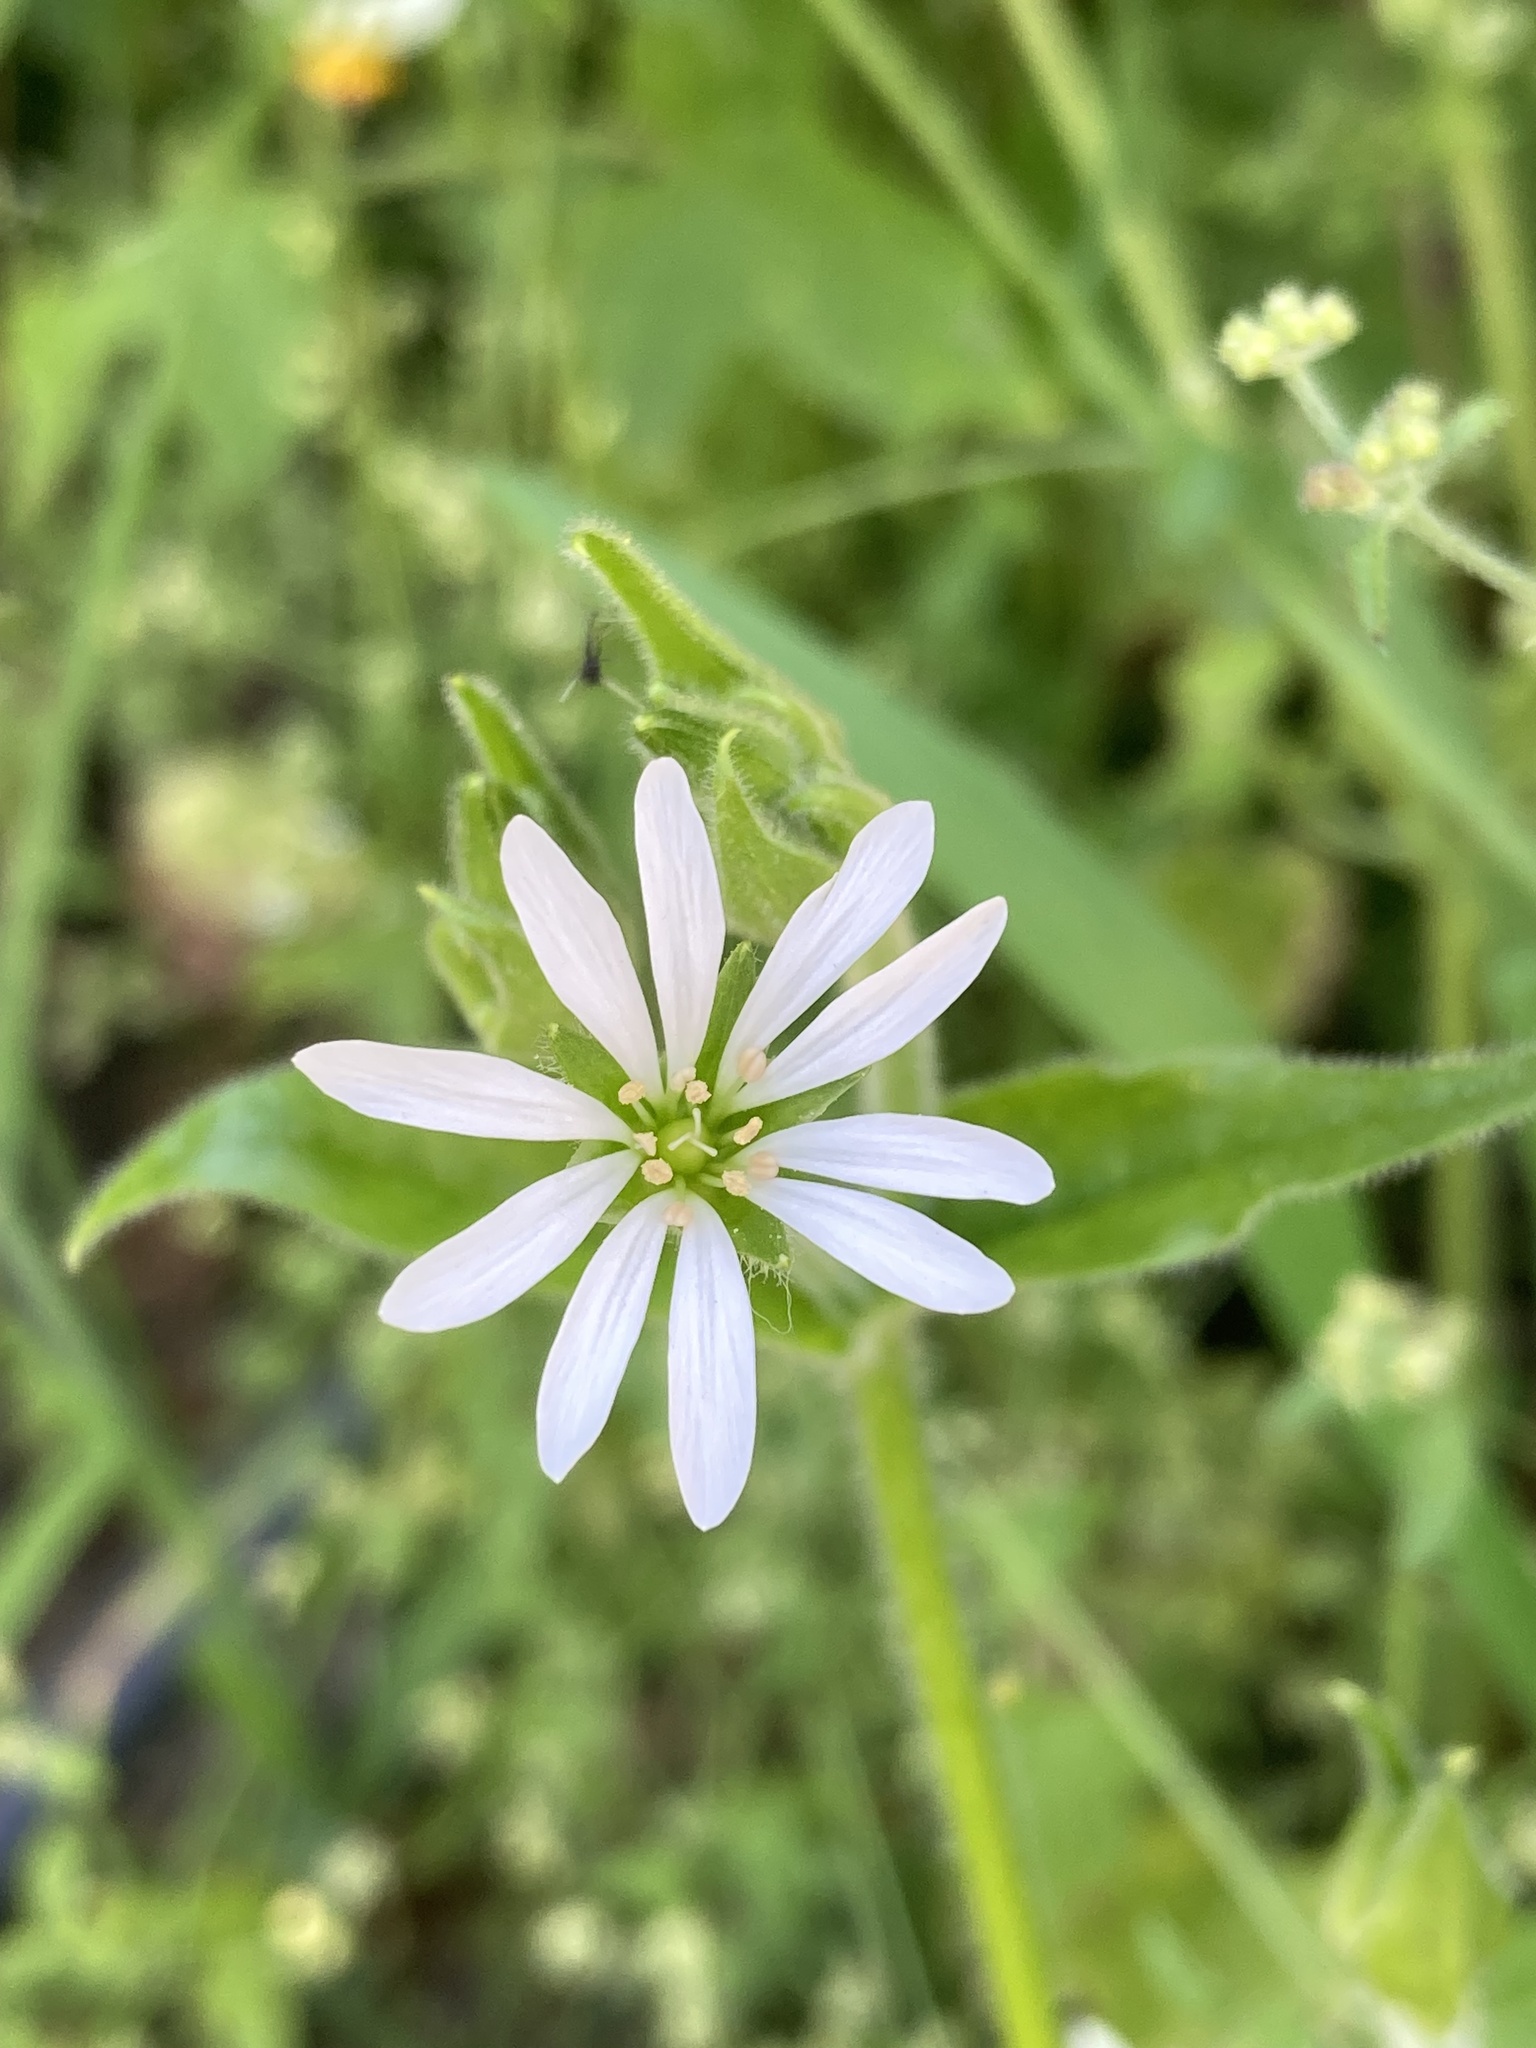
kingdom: Plantae
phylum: Tracheophyta
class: Magnoliopsida
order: Caryophyllales
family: Caryophyllaceae
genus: Stellaria
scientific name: Stellaria chilensis
